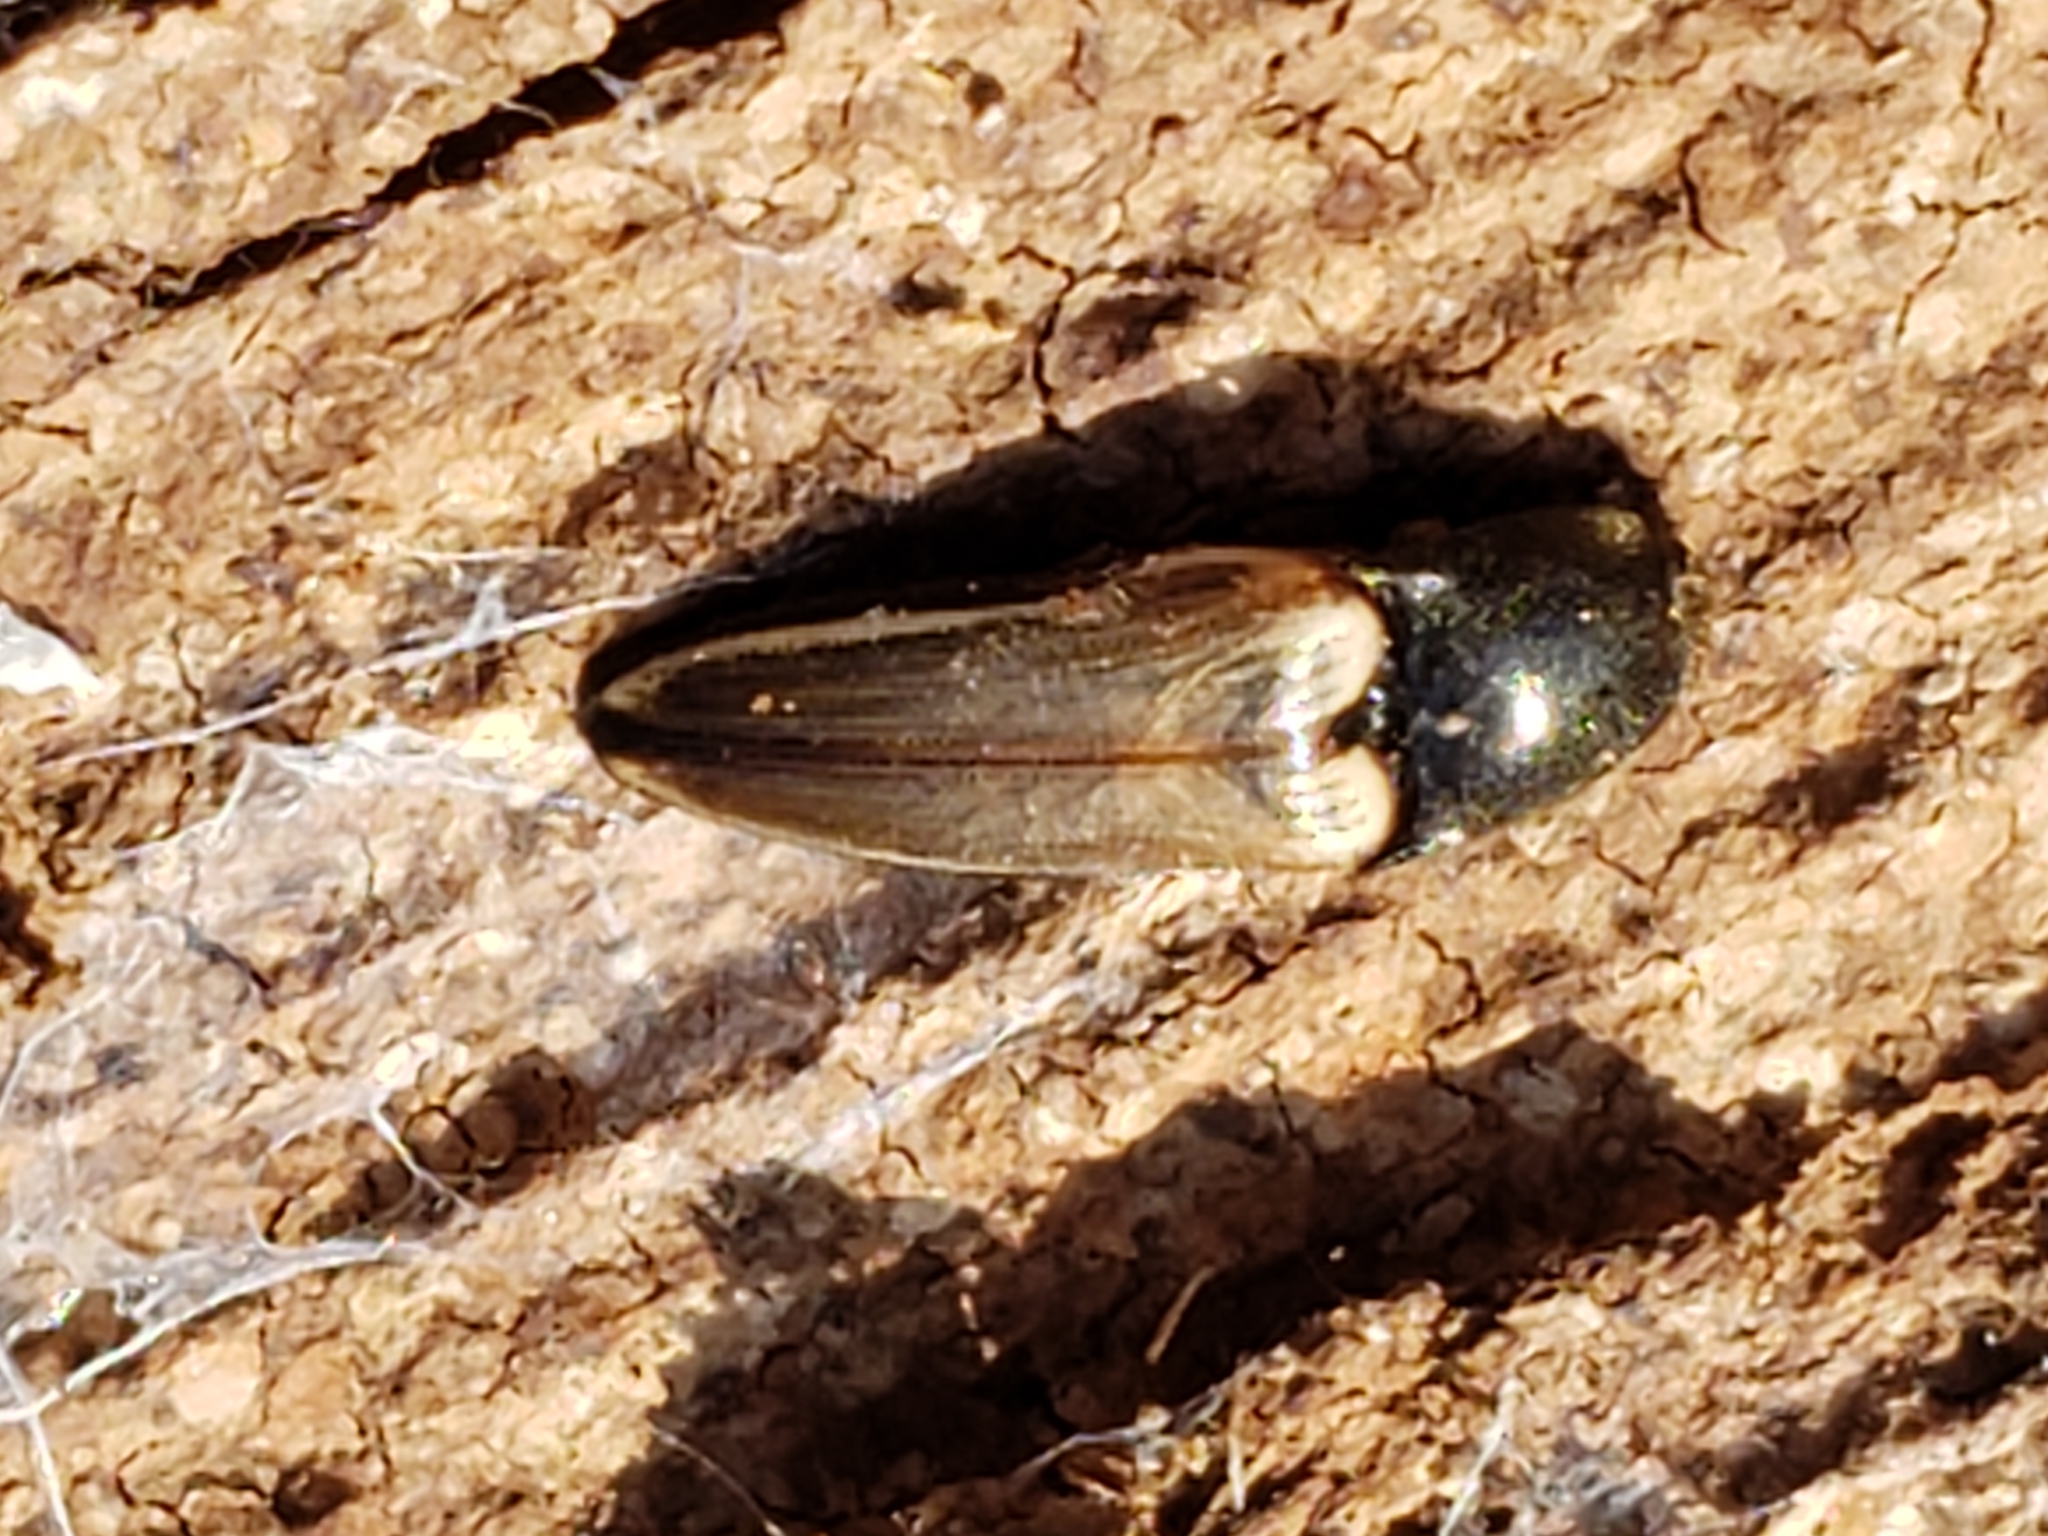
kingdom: Animalia
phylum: Arthropoda
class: Insecta
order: Coleoptera
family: Elateridae
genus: Ampedus
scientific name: Ampedus nigricollis
